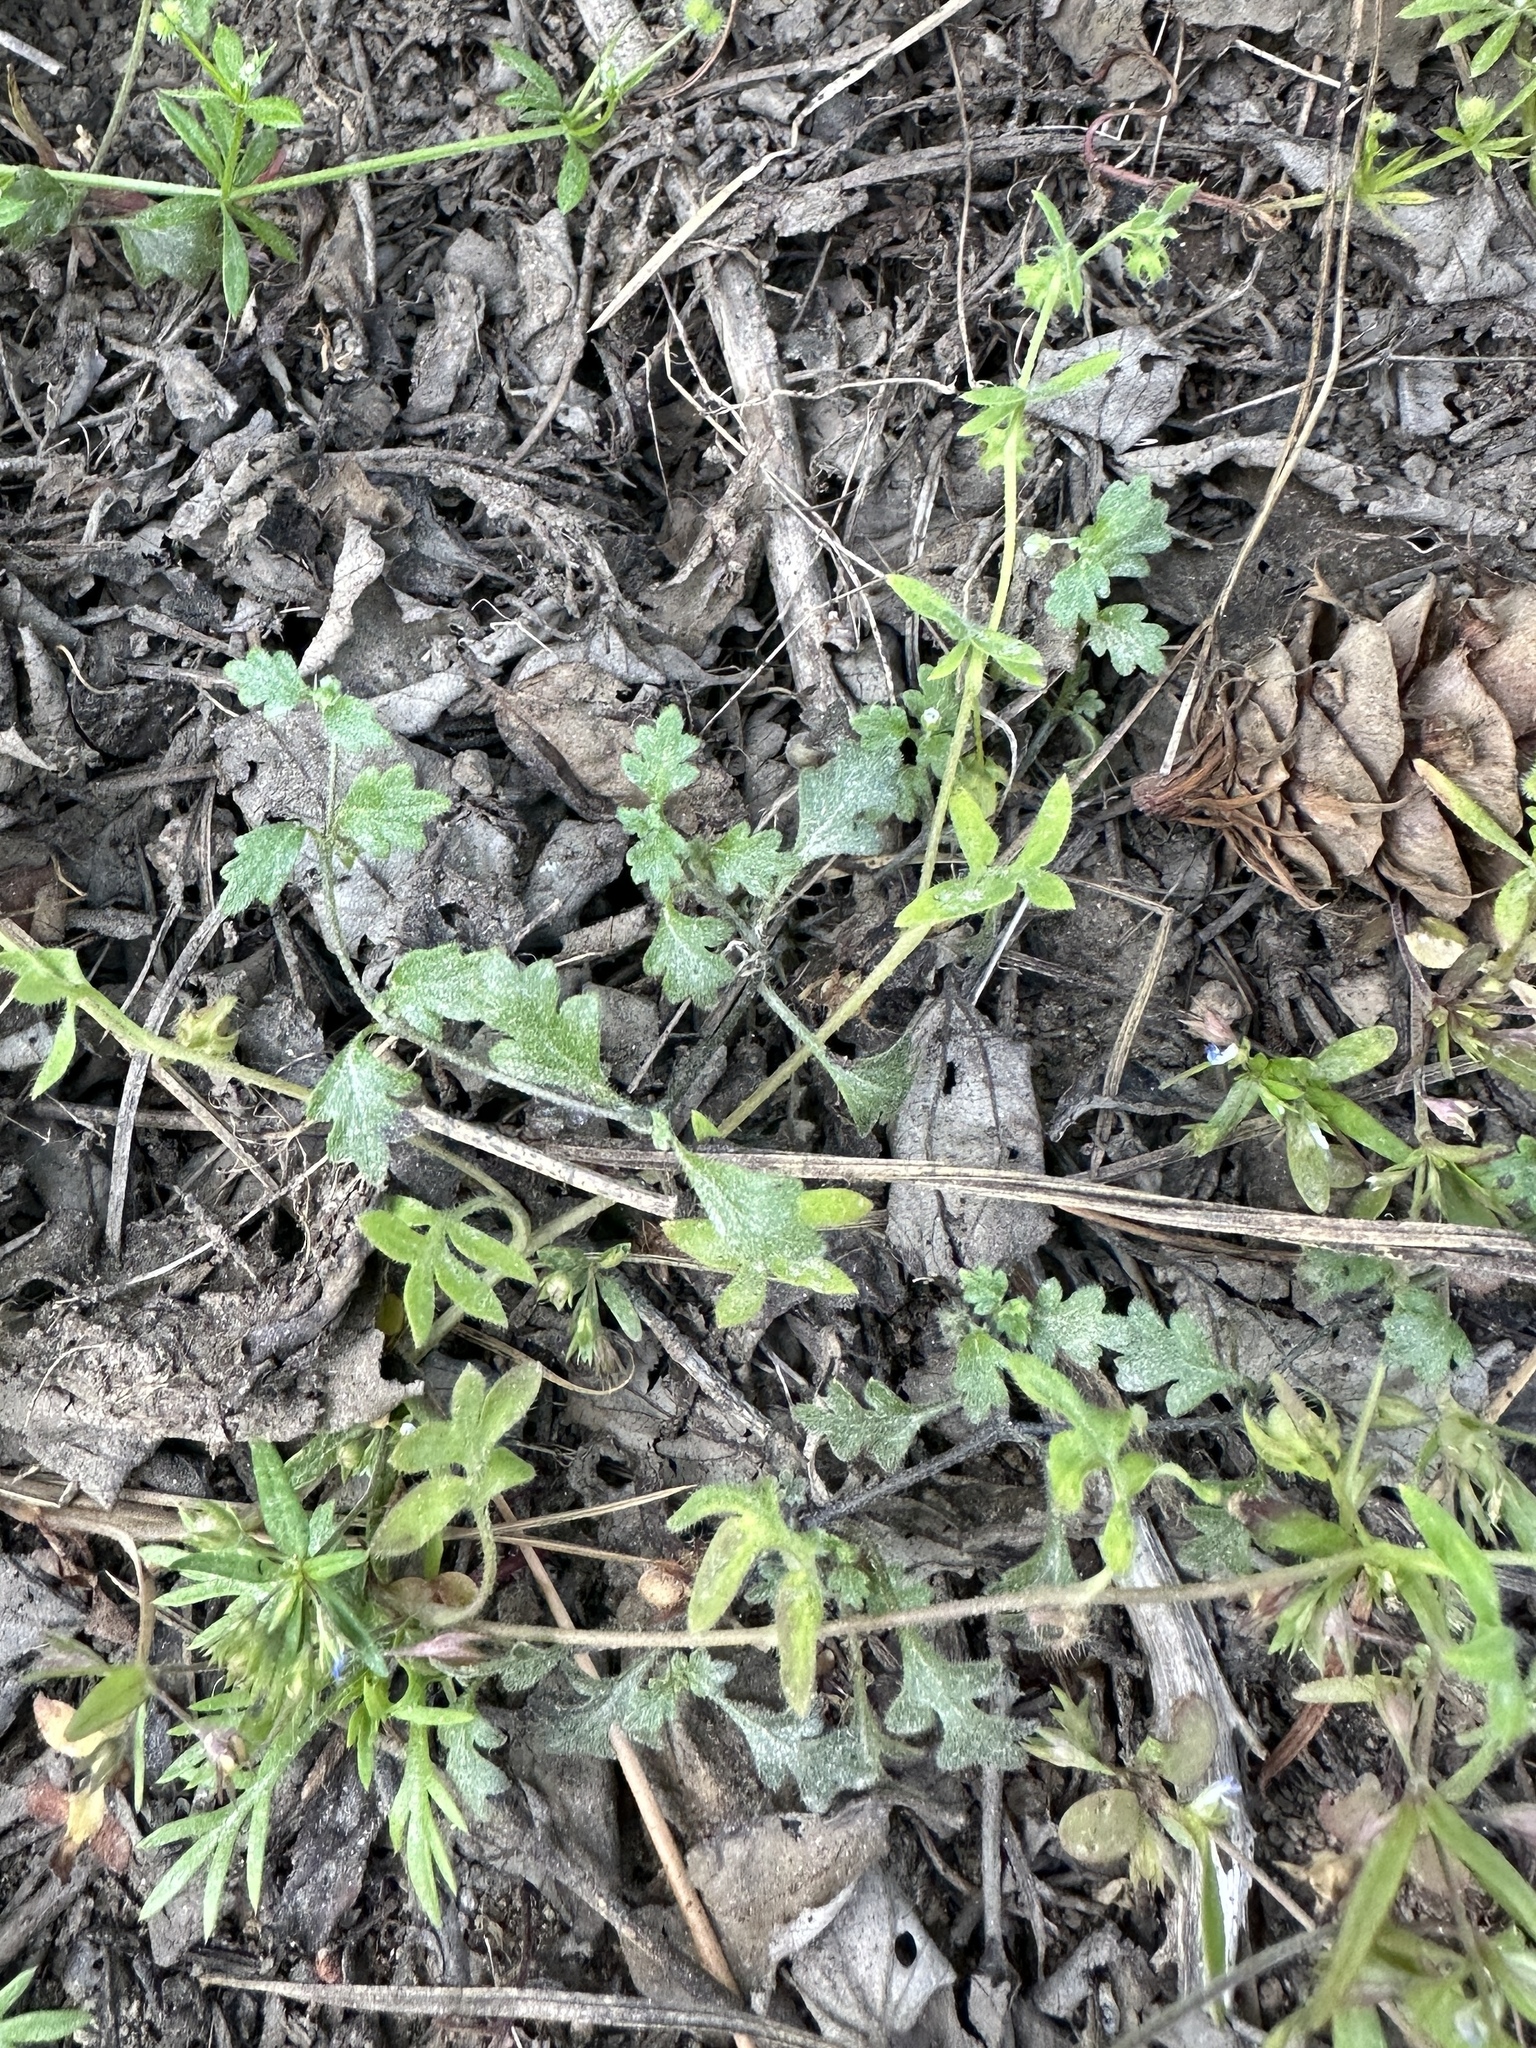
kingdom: Plantae
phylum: Tracheophyta
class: Magnoliopsida
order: Boraginales
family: Hydrophyllaceae
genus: Nemophila
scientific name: Nemophila breviflora
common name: Great basin baby-blue-eyes
